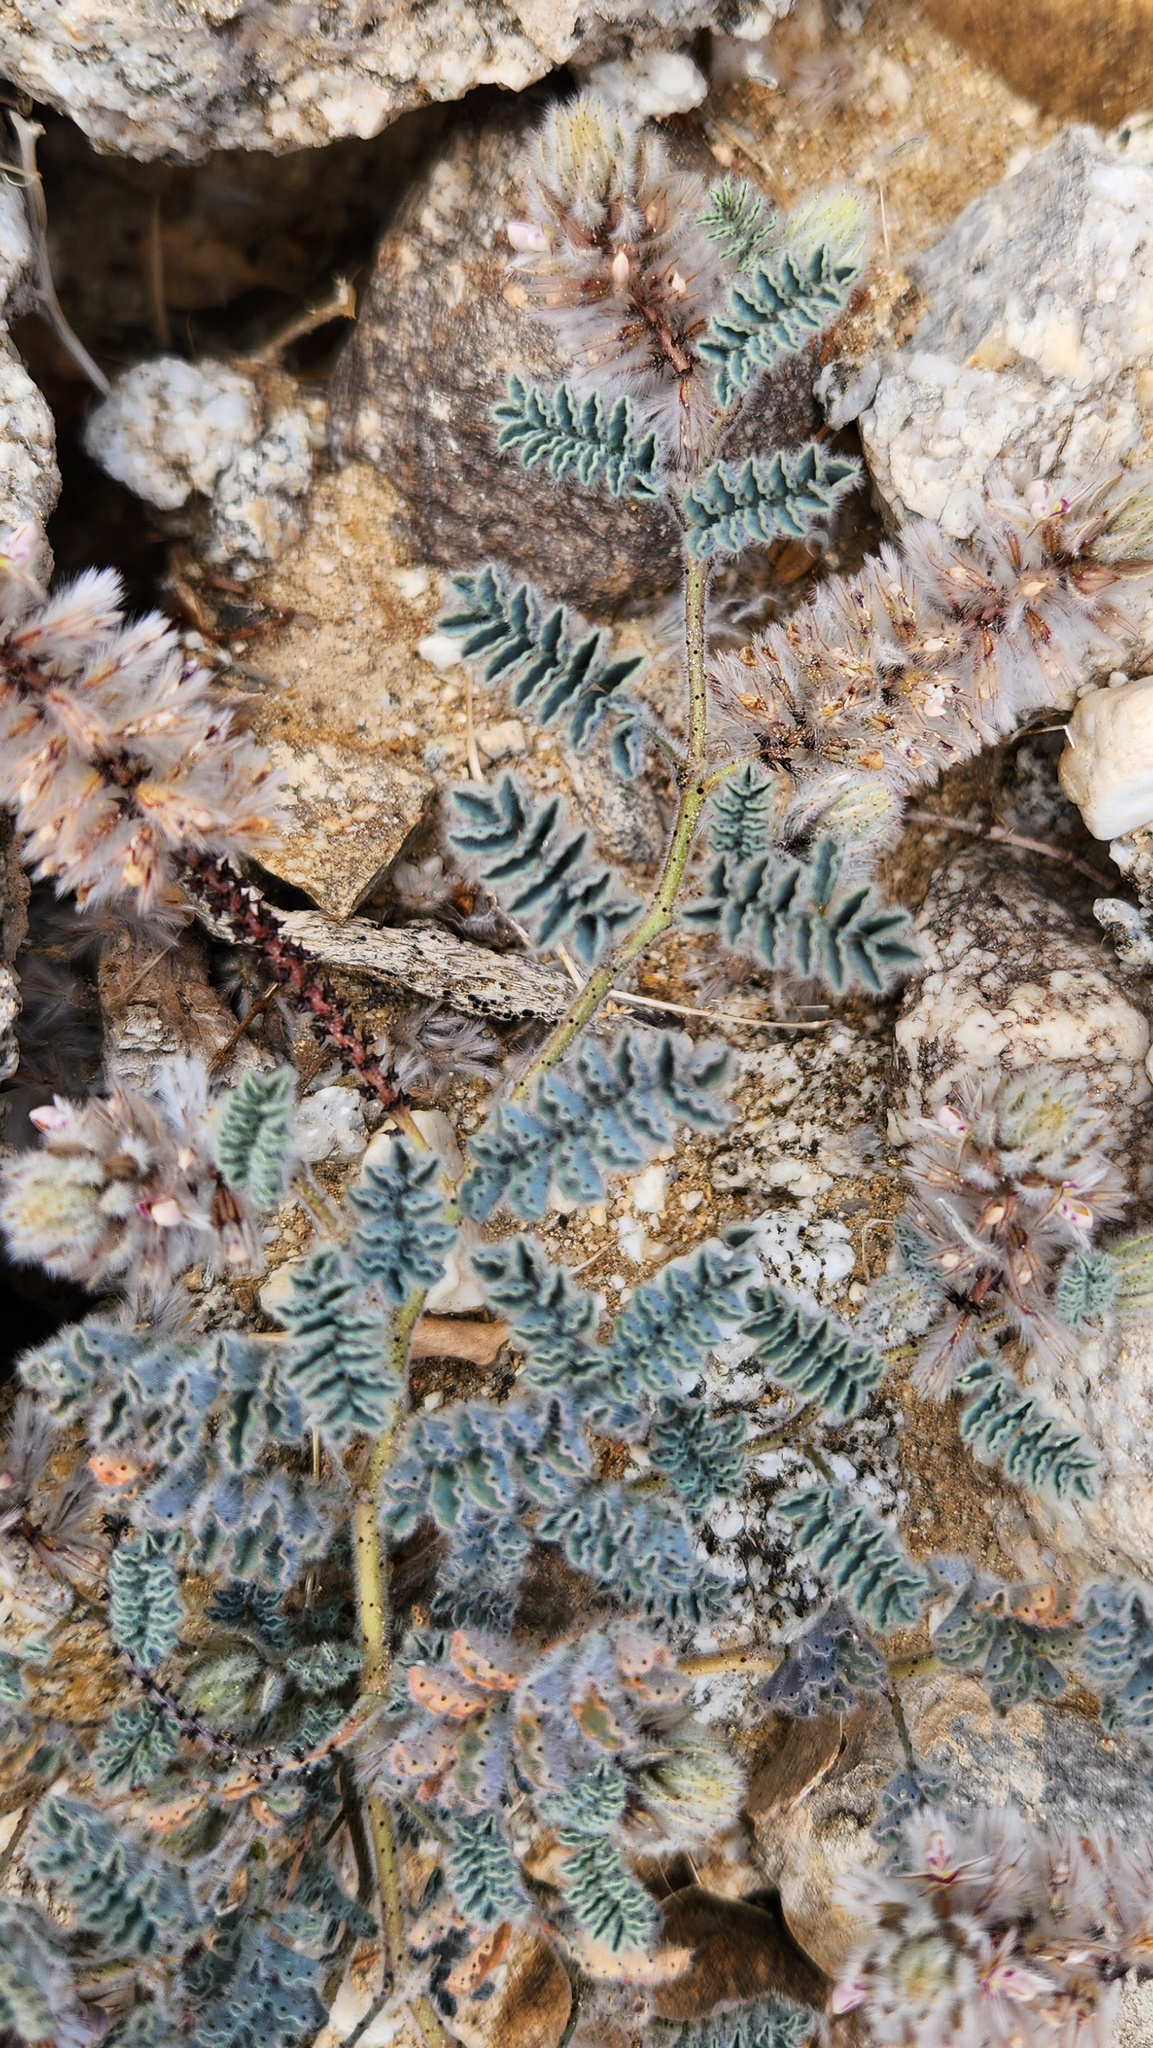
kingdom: Plantae
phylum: Tracheophyta
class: Magnoliopsida
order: Fabales
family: Fabaceae
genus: Dalea
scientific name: Dalea mollissima
